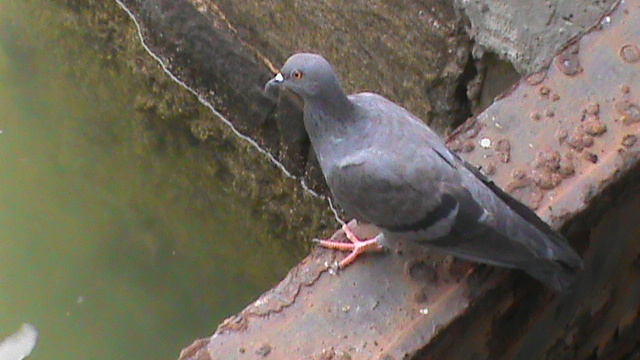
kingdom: Animalia
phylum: Chordata
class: Aves
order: Columbiformes
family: Columbidae
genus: Columba
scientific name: Columba livia
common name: Rock pigeon
